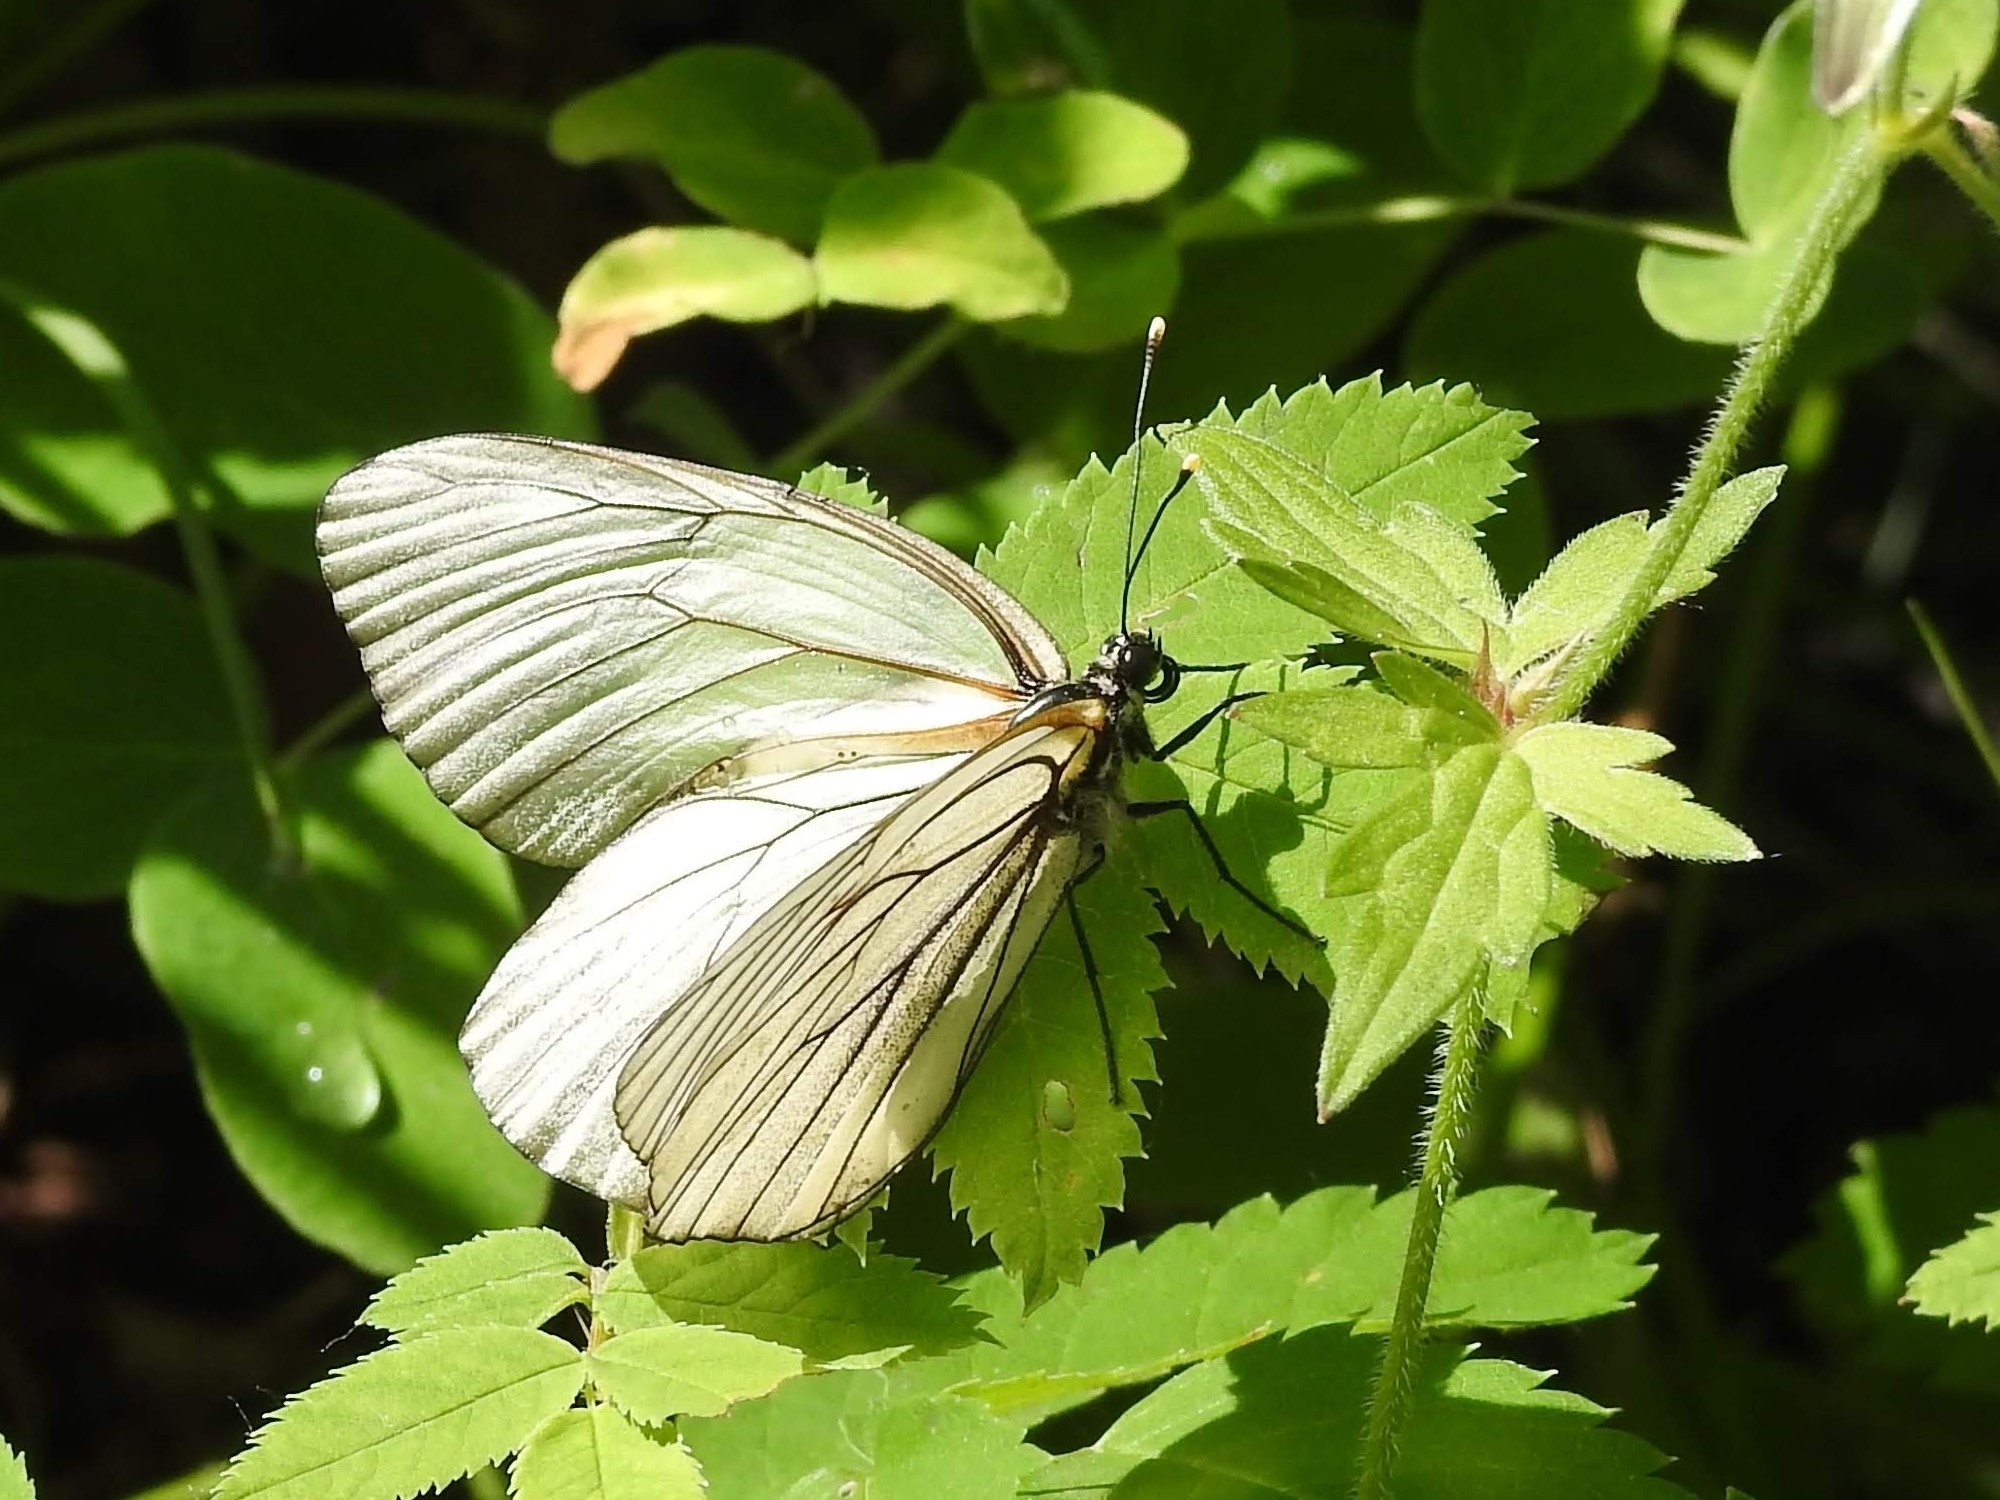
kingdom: Animalia
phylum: Arthropoda
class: Insecta
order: Lepidoptera
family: Pieridae
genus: Aporia
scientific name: Aporia crataegi
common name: Black-veined white
